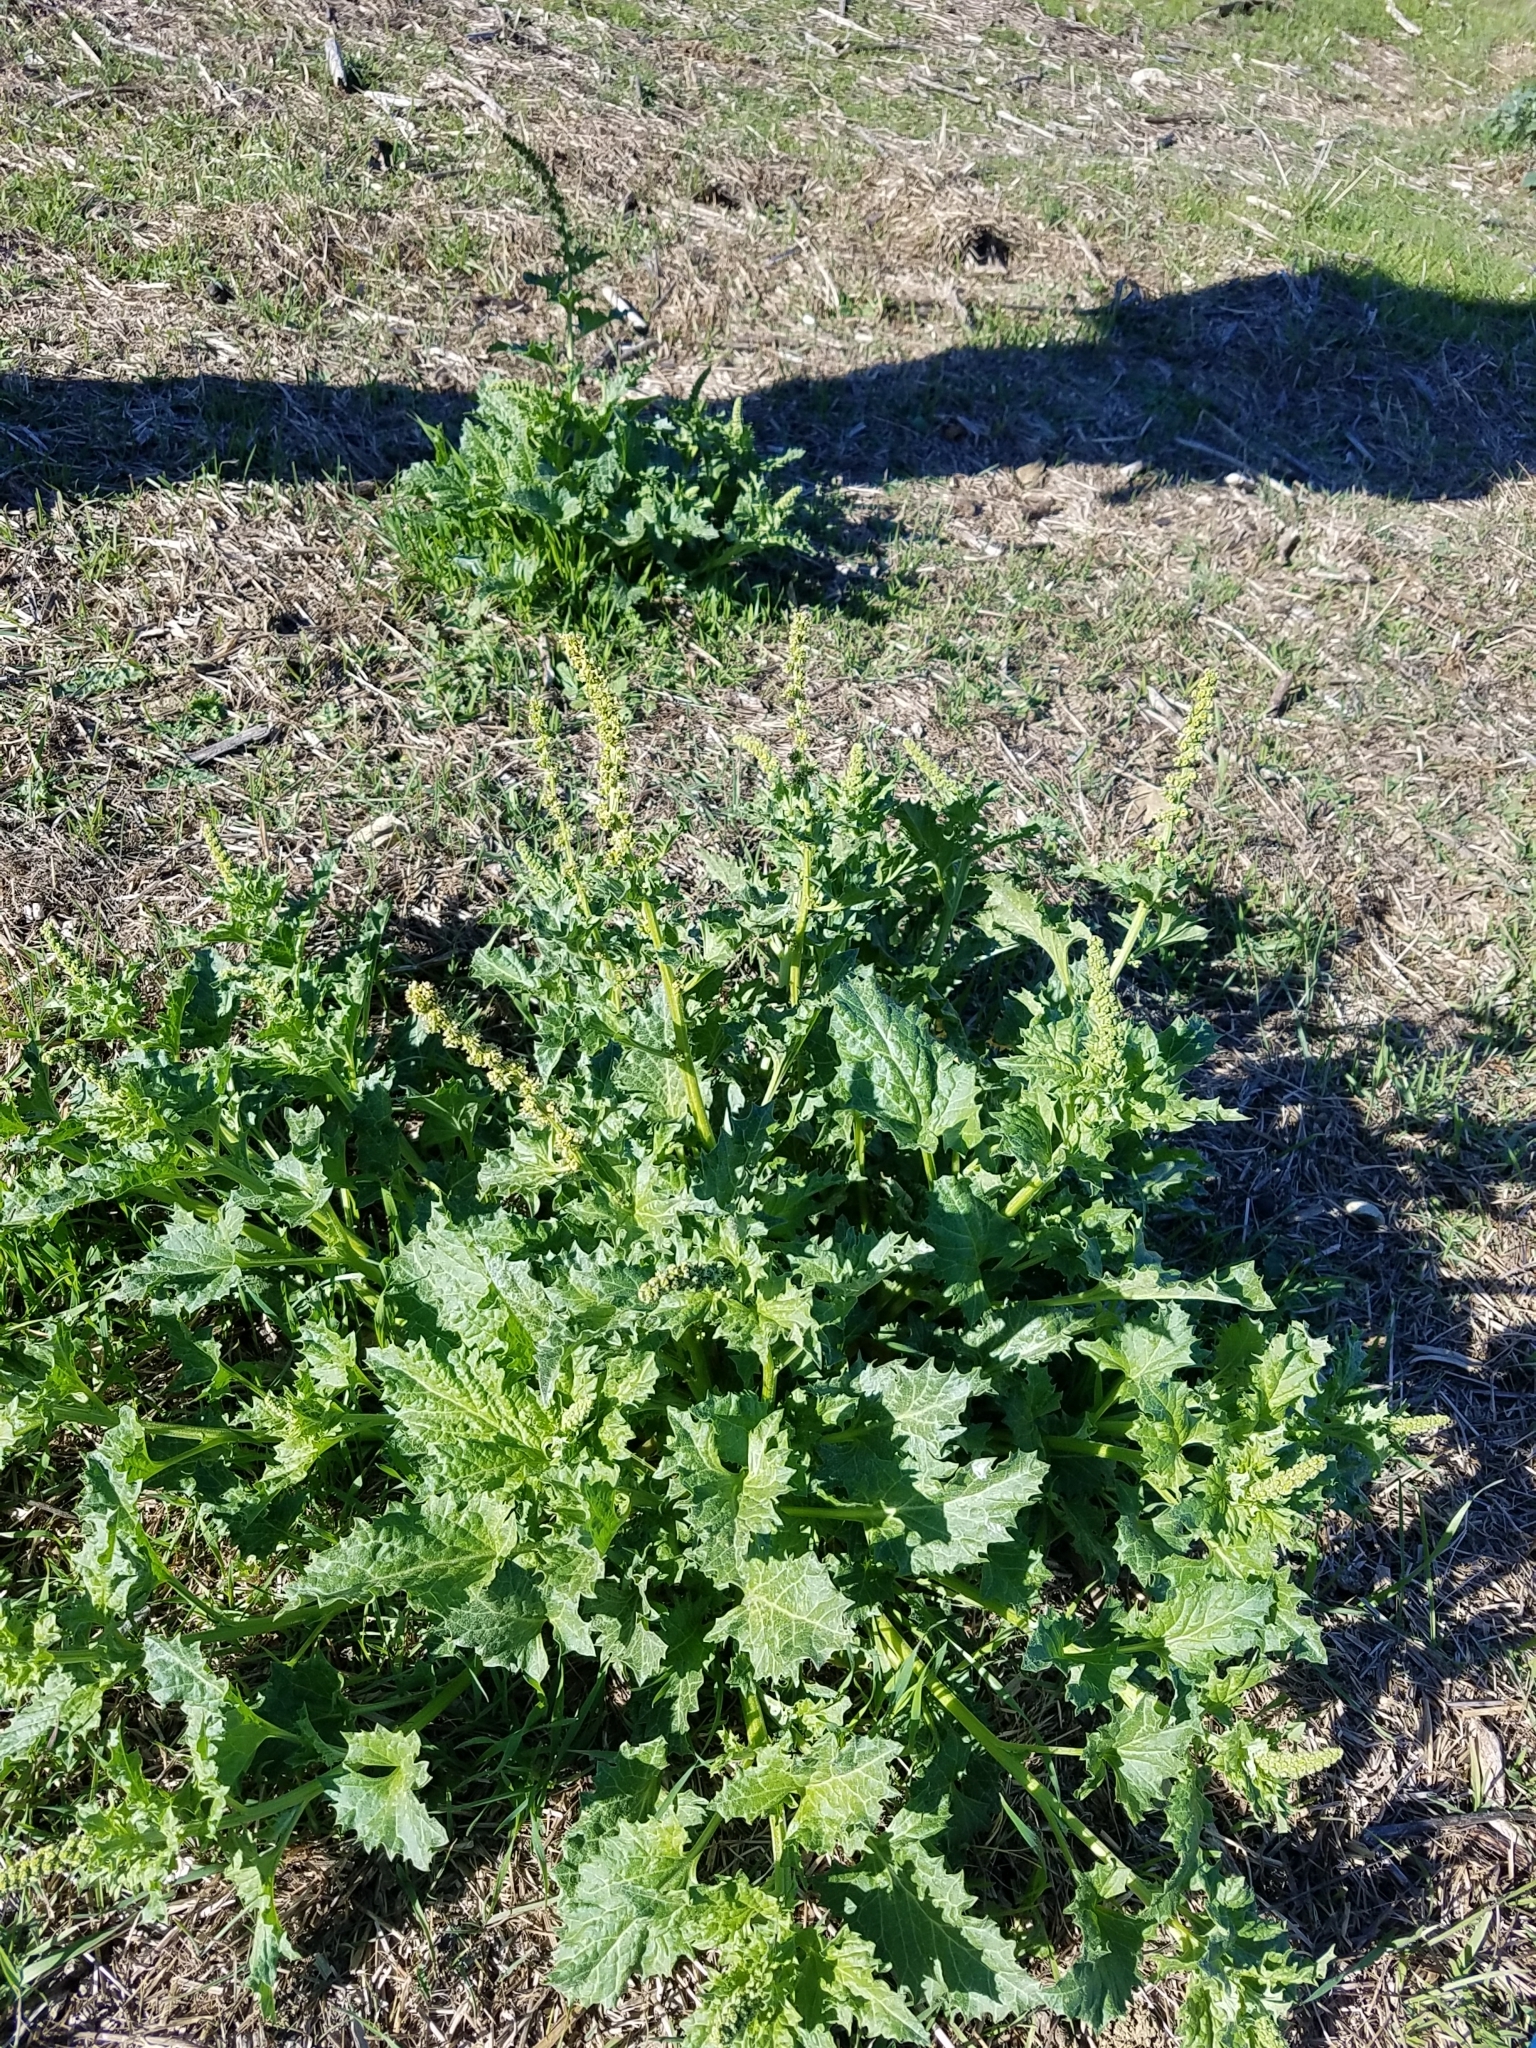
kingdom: Plantae
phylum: Tracheophyta
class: Magnoliopsida
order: Caryophyllales
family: Amaranthaceae
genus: Blitum
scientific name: Blitum californicum
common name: California goosefoot
